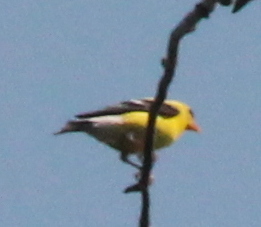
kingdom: Animalia
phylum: Chordata
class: Aves
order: Passeriformes
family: Fringillidae
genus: Spinus
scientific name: Spinus tristis
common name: American goldfinch
